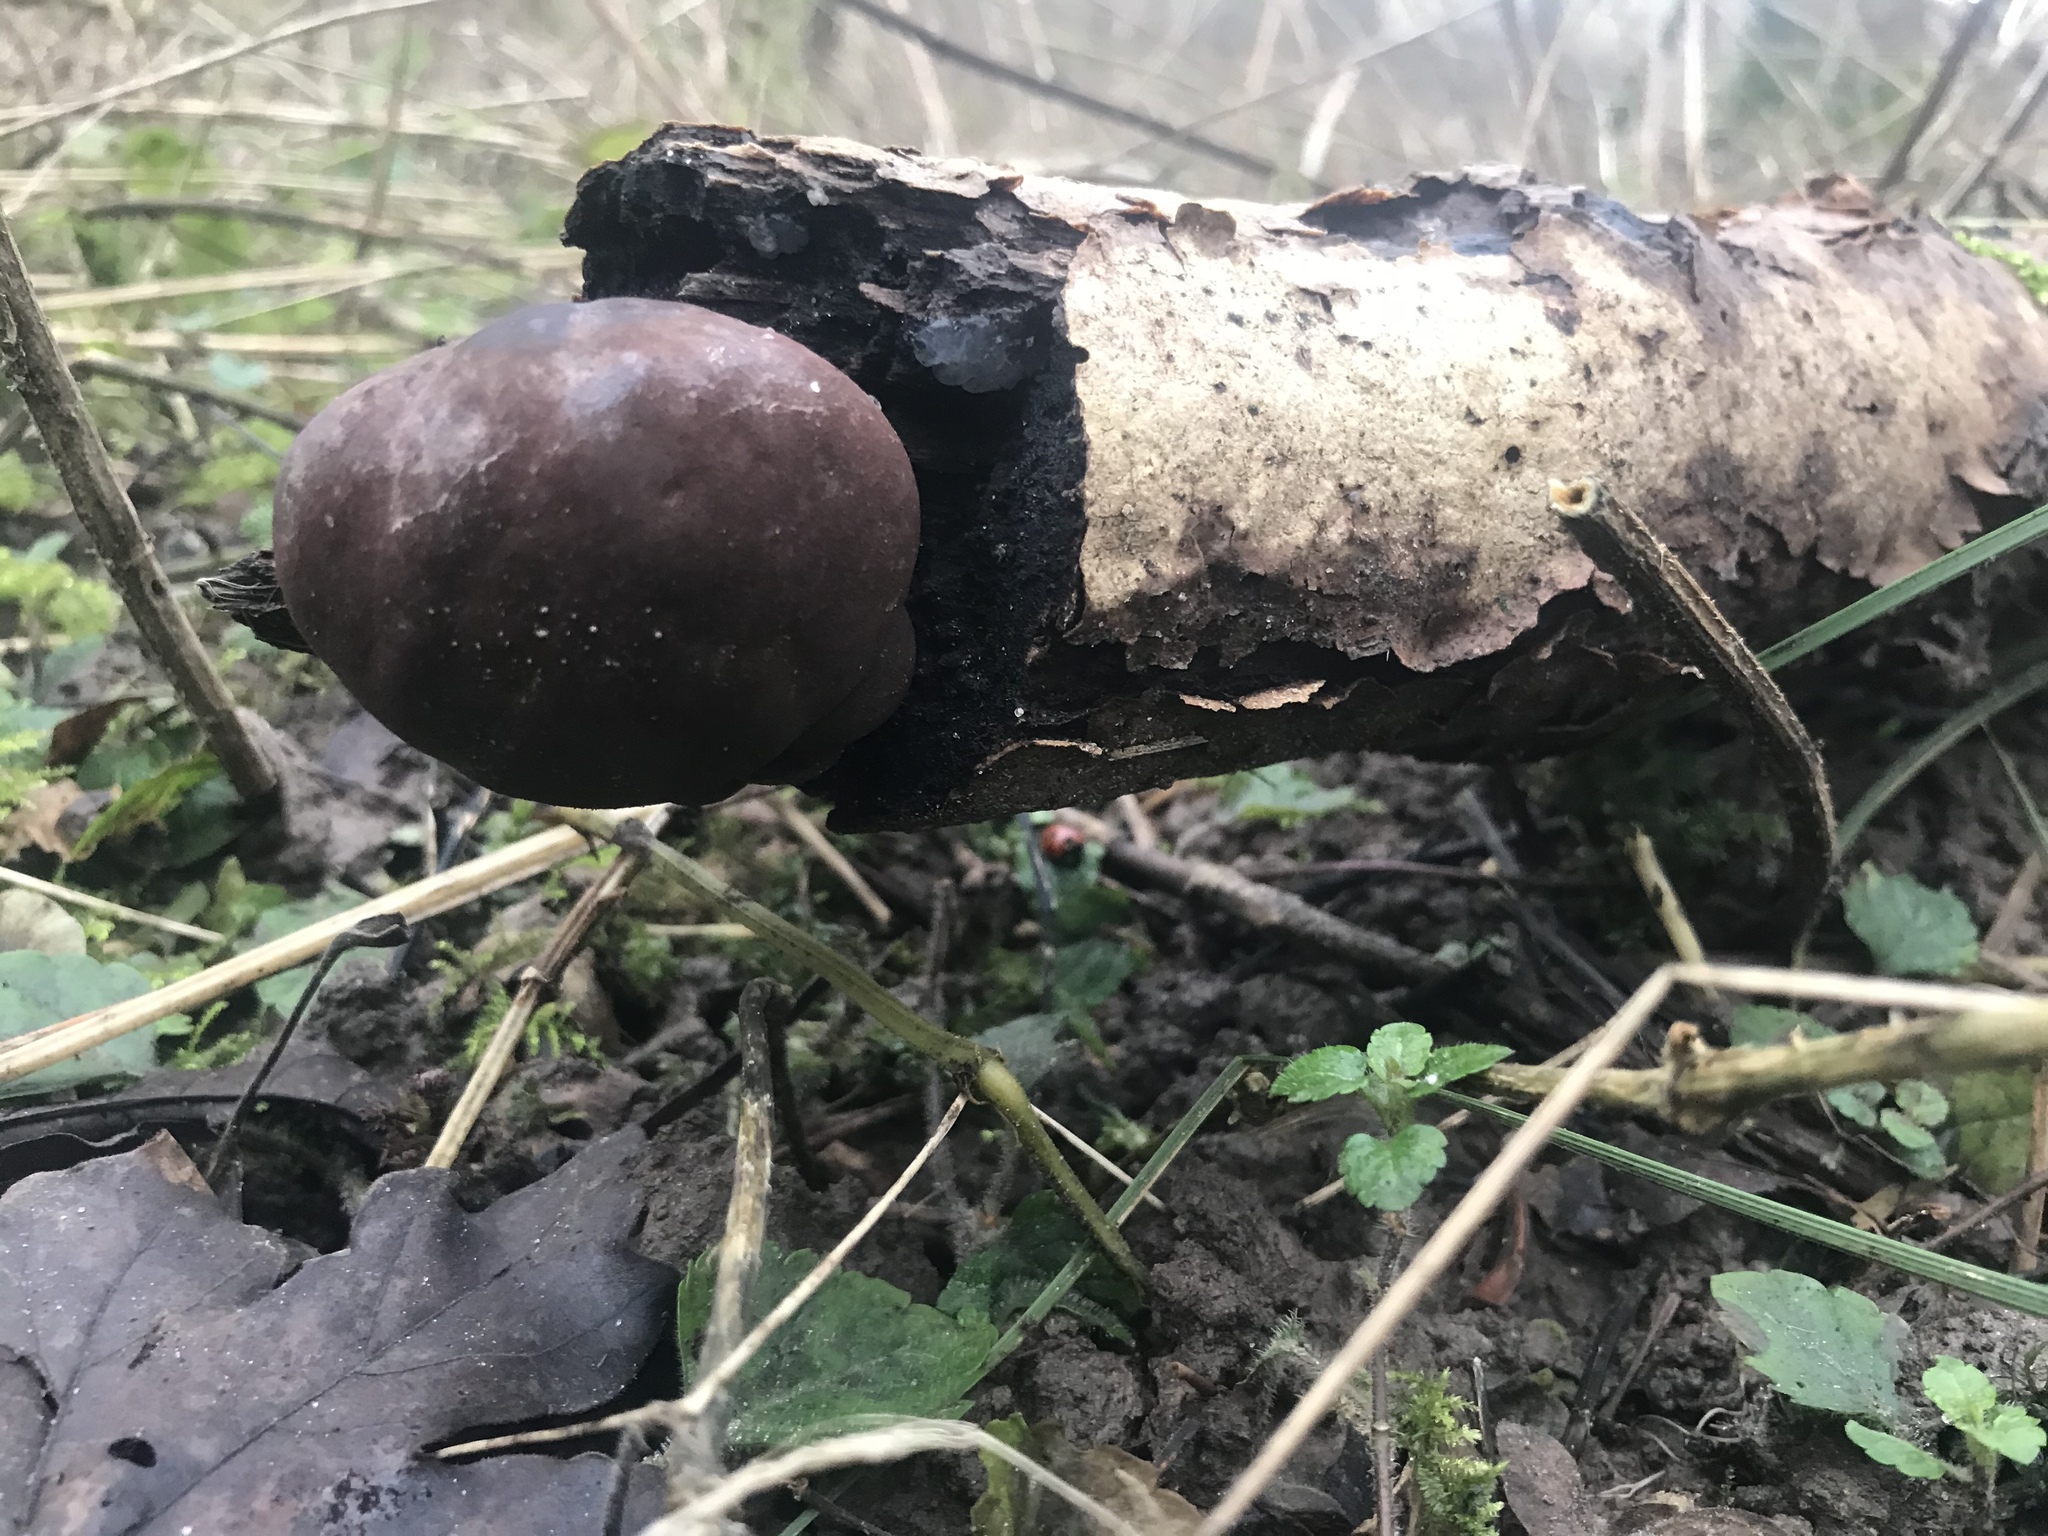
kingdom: Fungi
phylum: Ascomycota
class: Sordariomycetes
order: Xylariales
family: Hypoxylaceae
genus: Daldinia
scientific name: Daldinia concentrica
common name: Cramp balls
